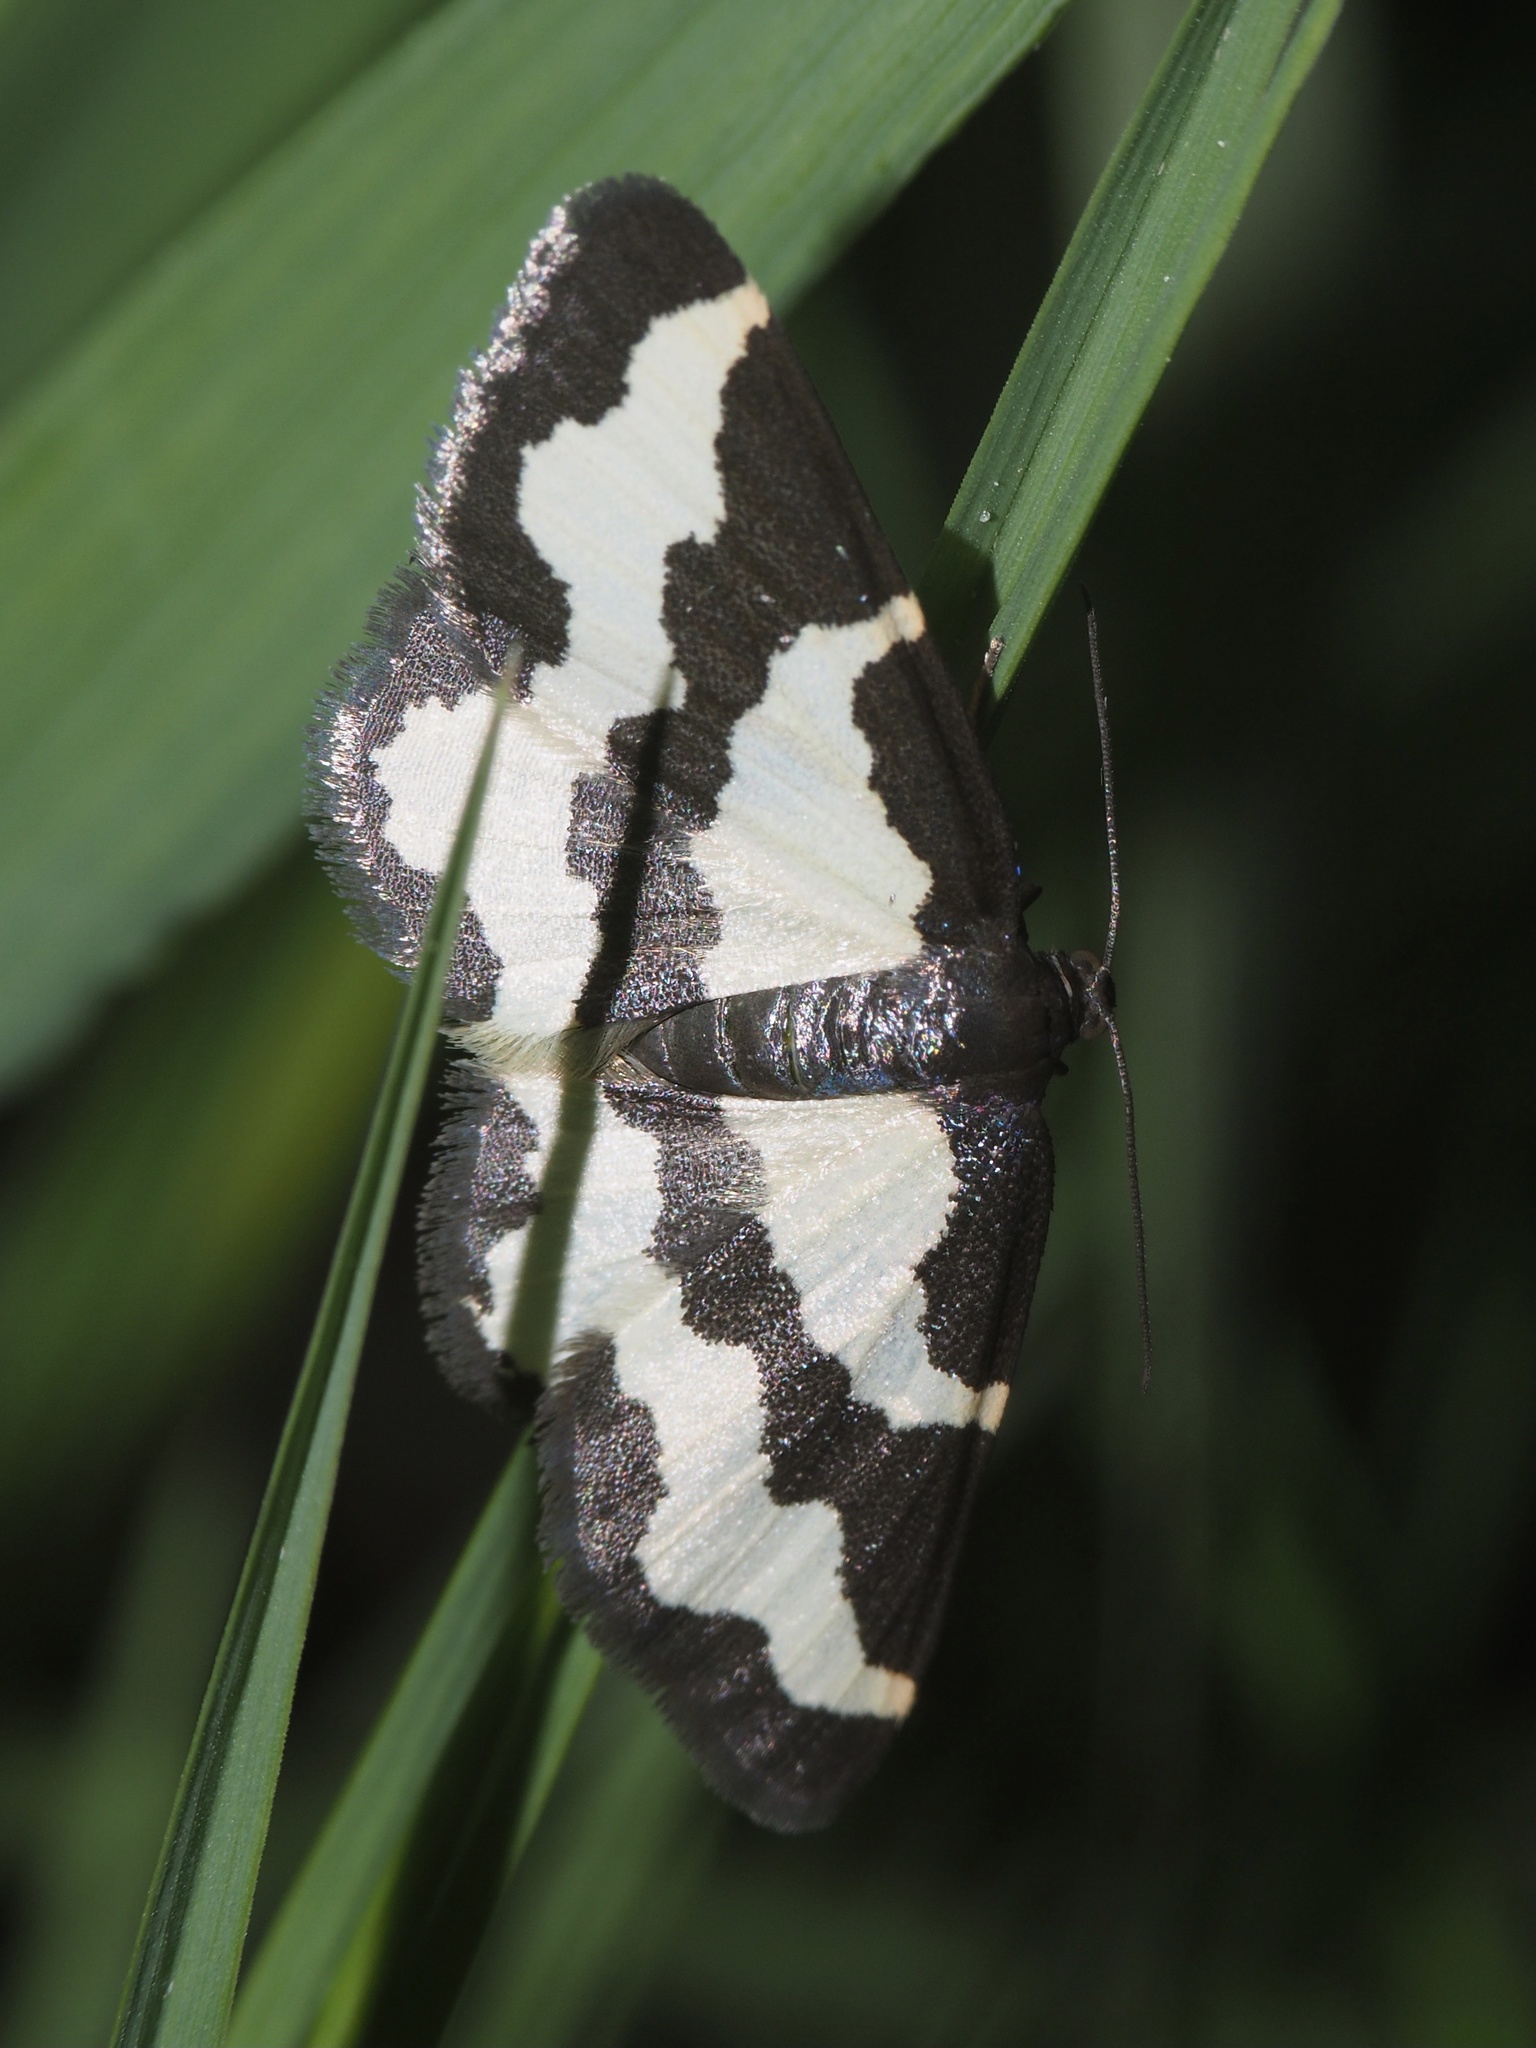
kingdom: Animalia
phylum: Arthropoda
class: Insecta
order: Lepidoptera
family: Geometridae
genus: Lomaspilis
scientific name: Lomaspilis marginata
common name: Clouded border
